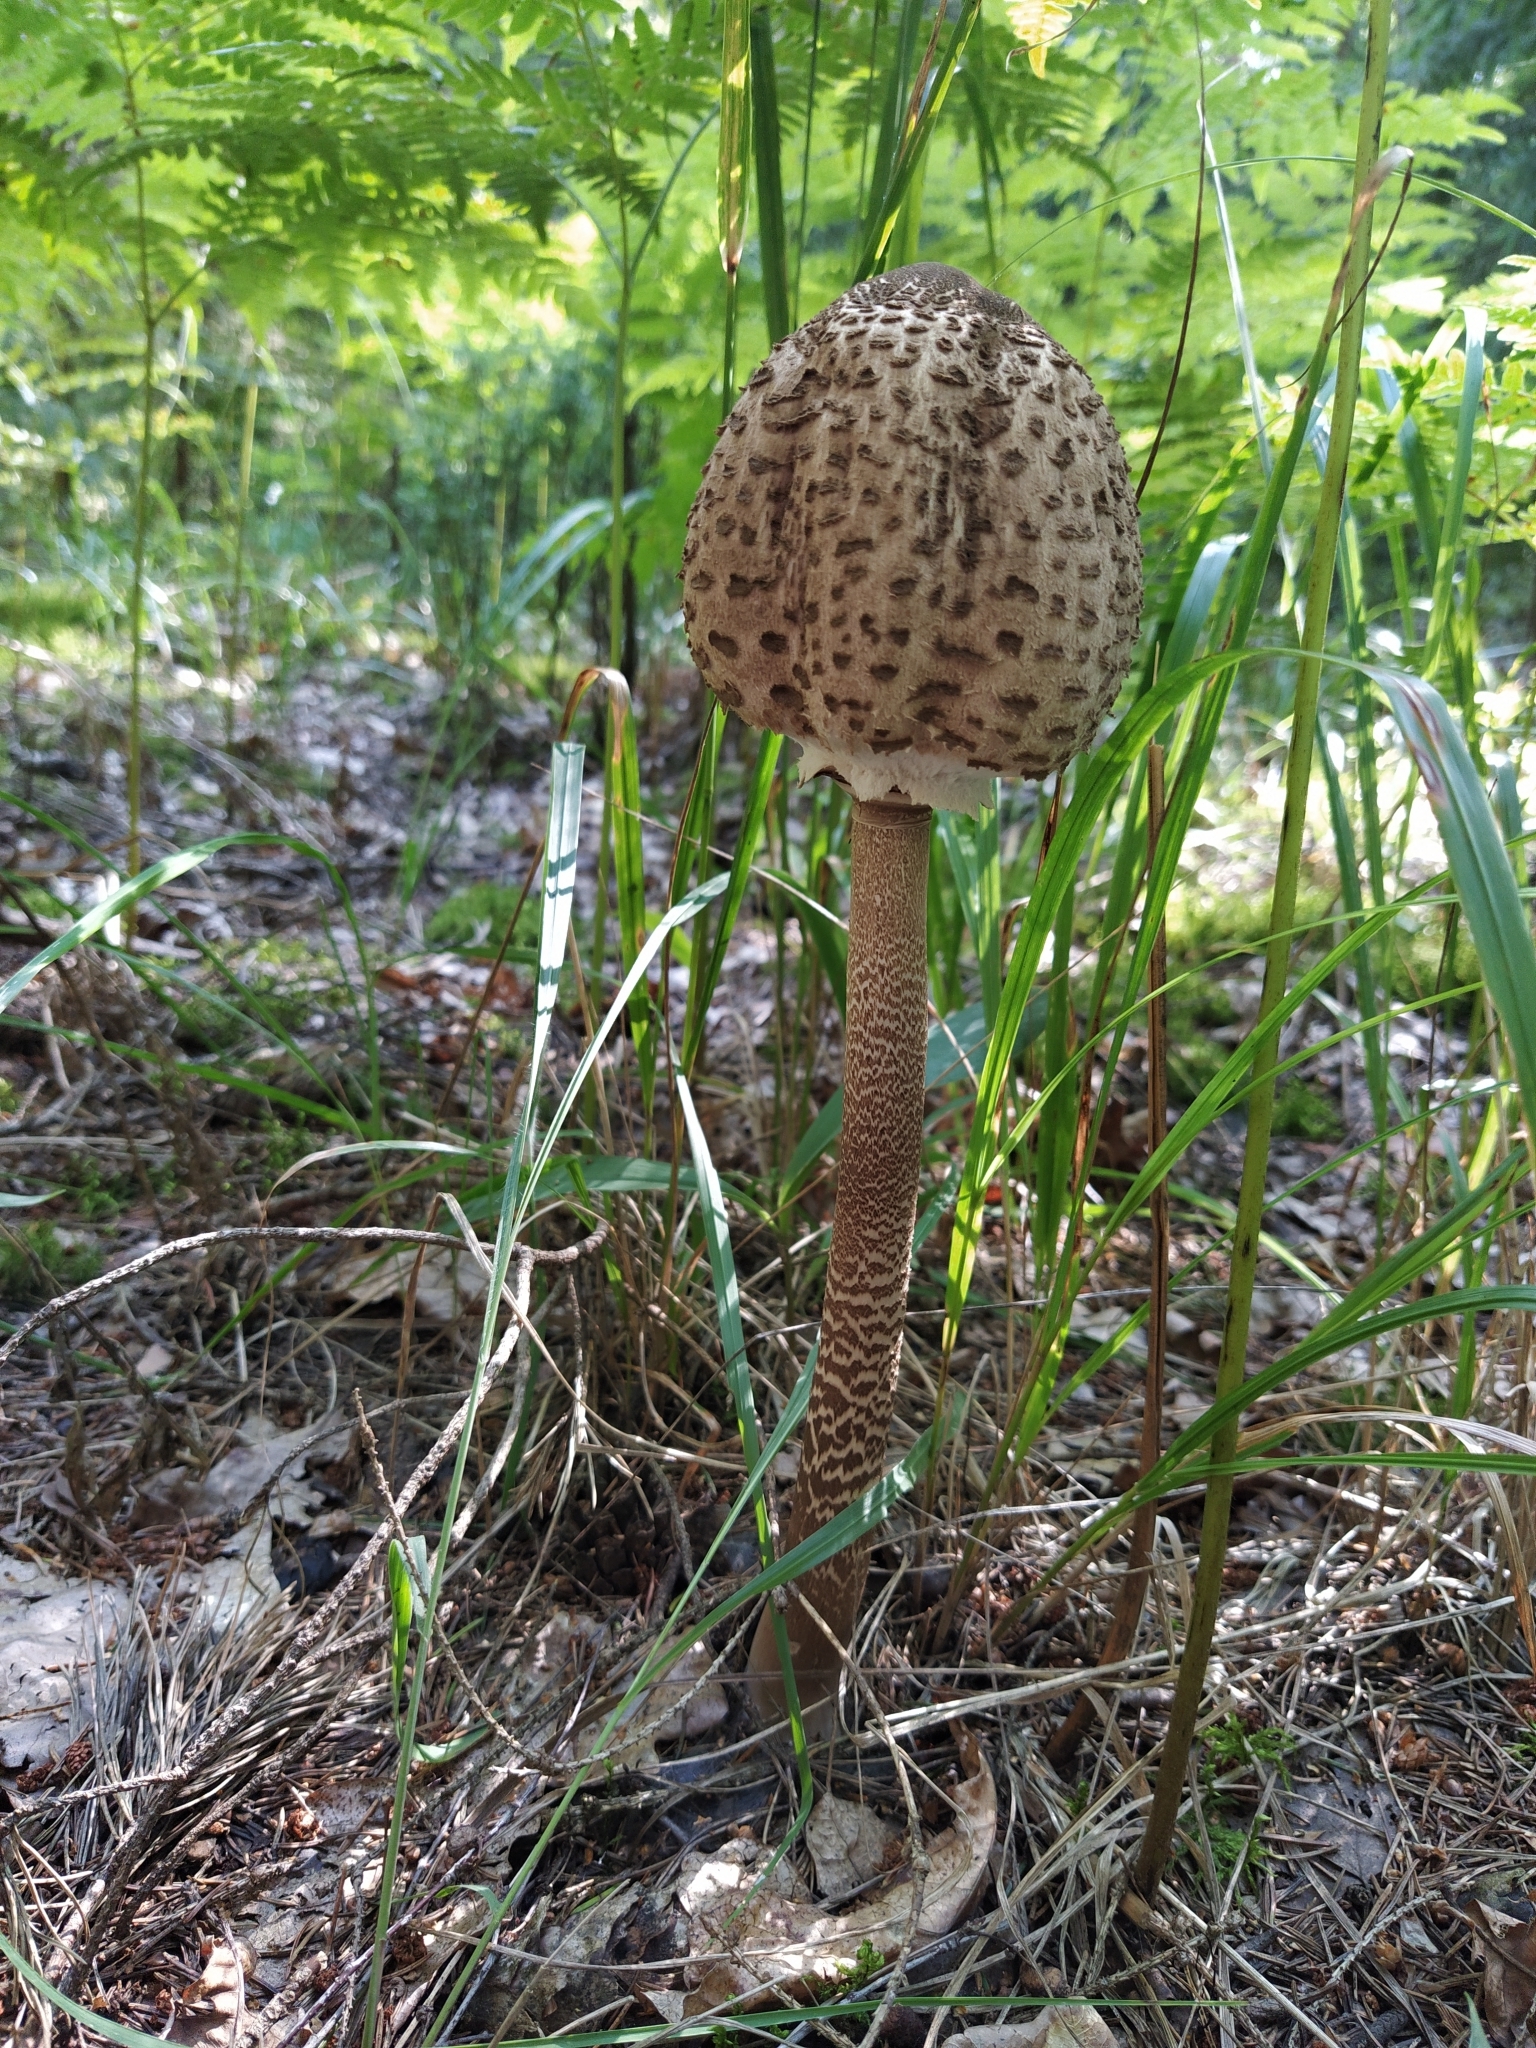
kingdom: Fungi
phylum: Basidiomycota
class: Agaricomycetes
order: Agaricales
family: Agaricaceae
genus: Macrolepiota
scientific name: Macrolepiota procera
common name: Parasol
